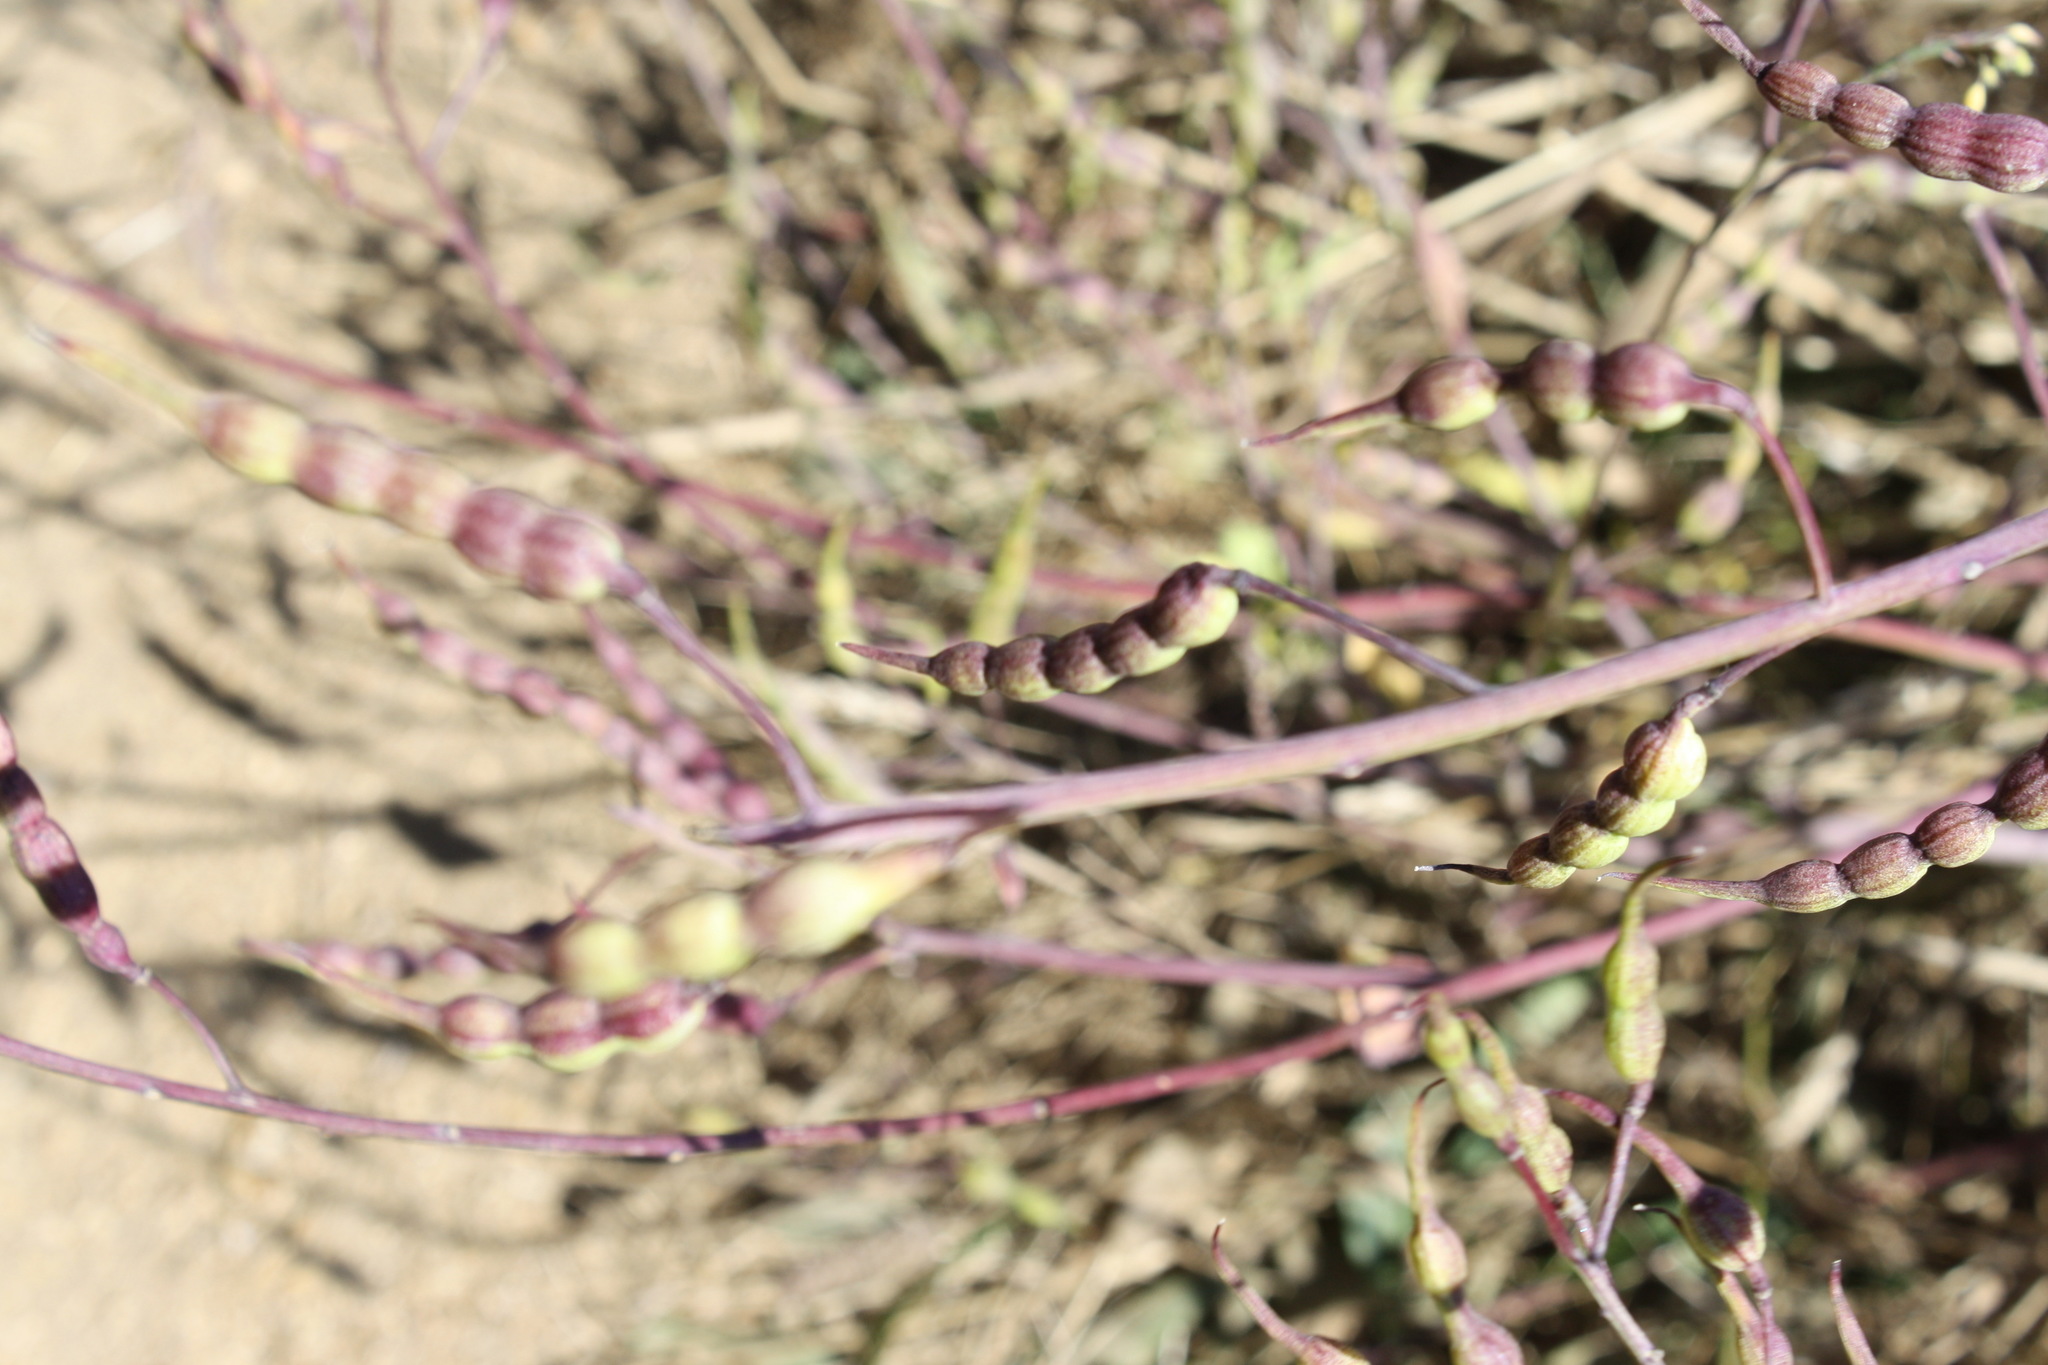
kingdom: Plantae
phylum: Tracheophyta
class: Magnoliopsida
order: Brassicales
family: Brassicaceae
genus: Raphanus
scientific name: Raphanus sativus
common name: Cultivated radish
